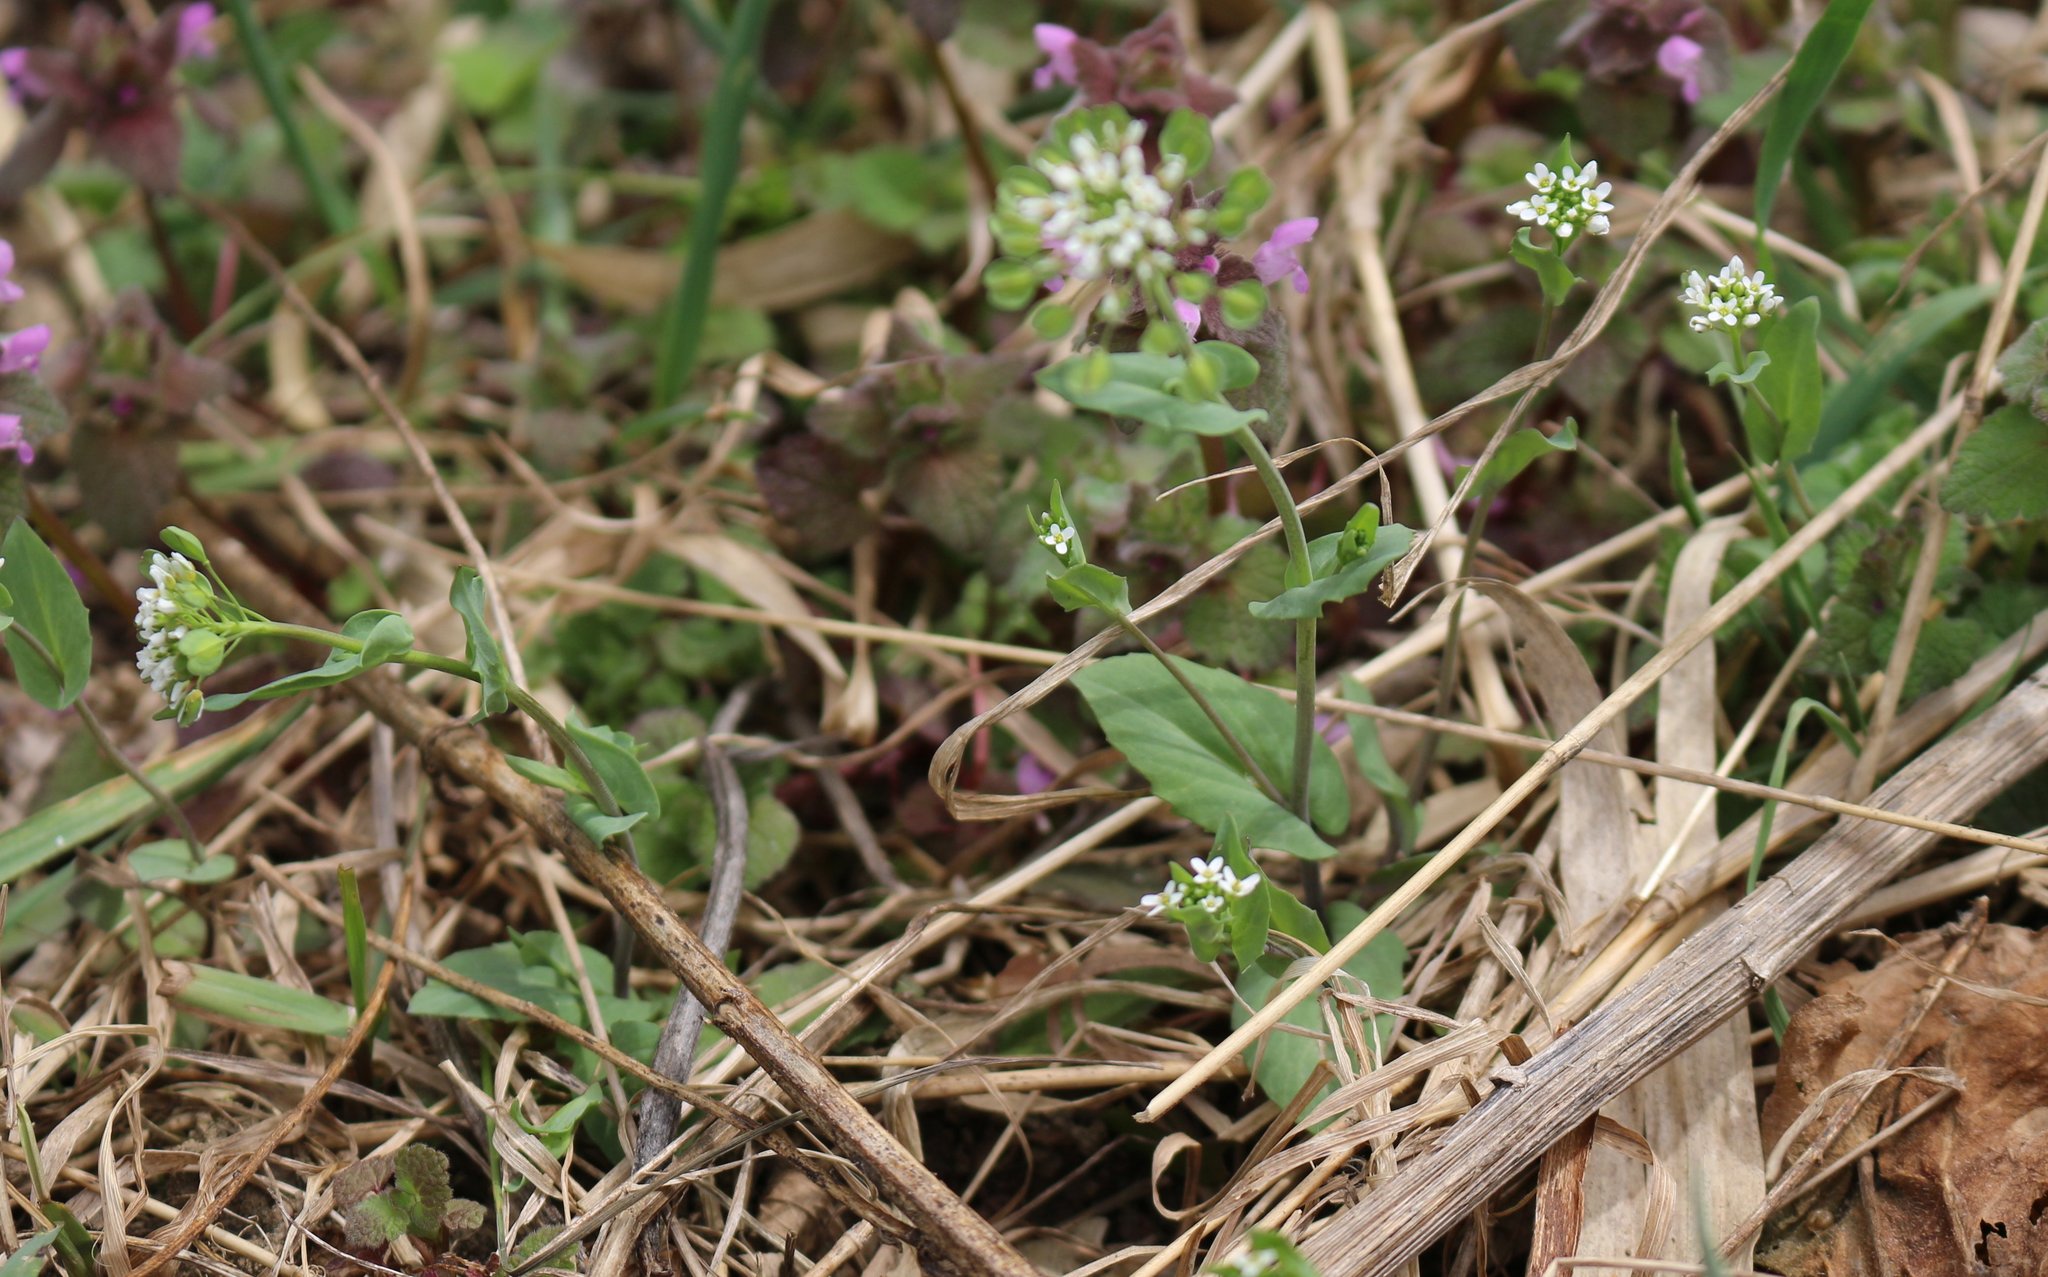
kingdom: Plantae
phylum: Tracheophyta
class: Magnoliopsida
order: Brassicales
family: Brassicaceae
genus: Noccaea
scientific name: Noccaea perfoliata
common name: Perfoliate pennycress
